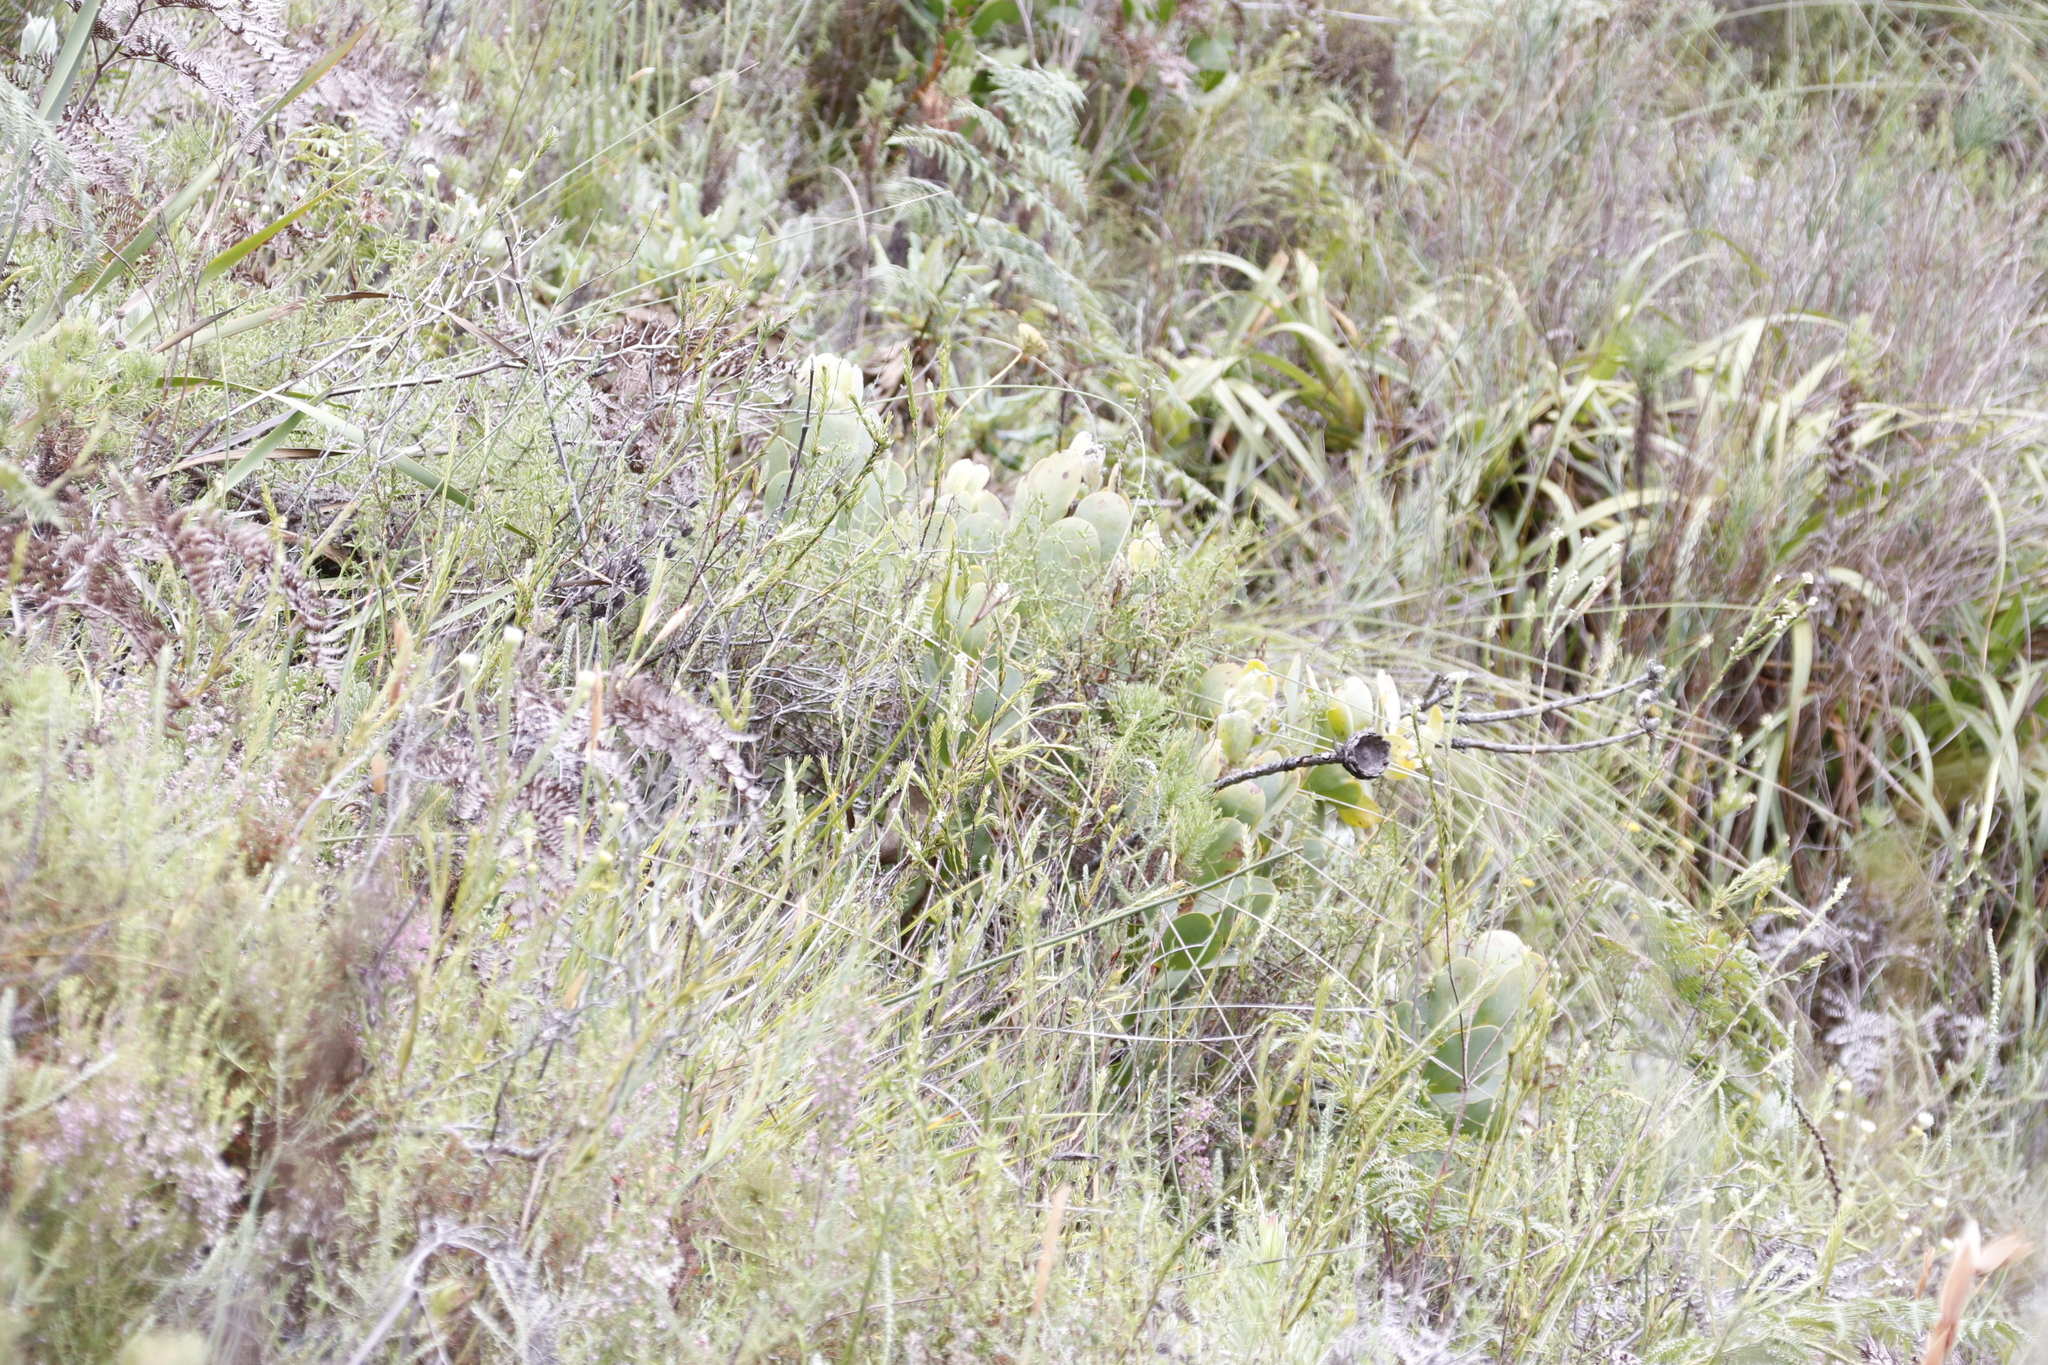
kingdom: Plantae
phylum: Tracheophyta
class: Magnoliopsida
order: Proteales
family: Proteaceae
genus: Protea
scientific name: Protea speciosa
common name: Brown-beard sugarbush
